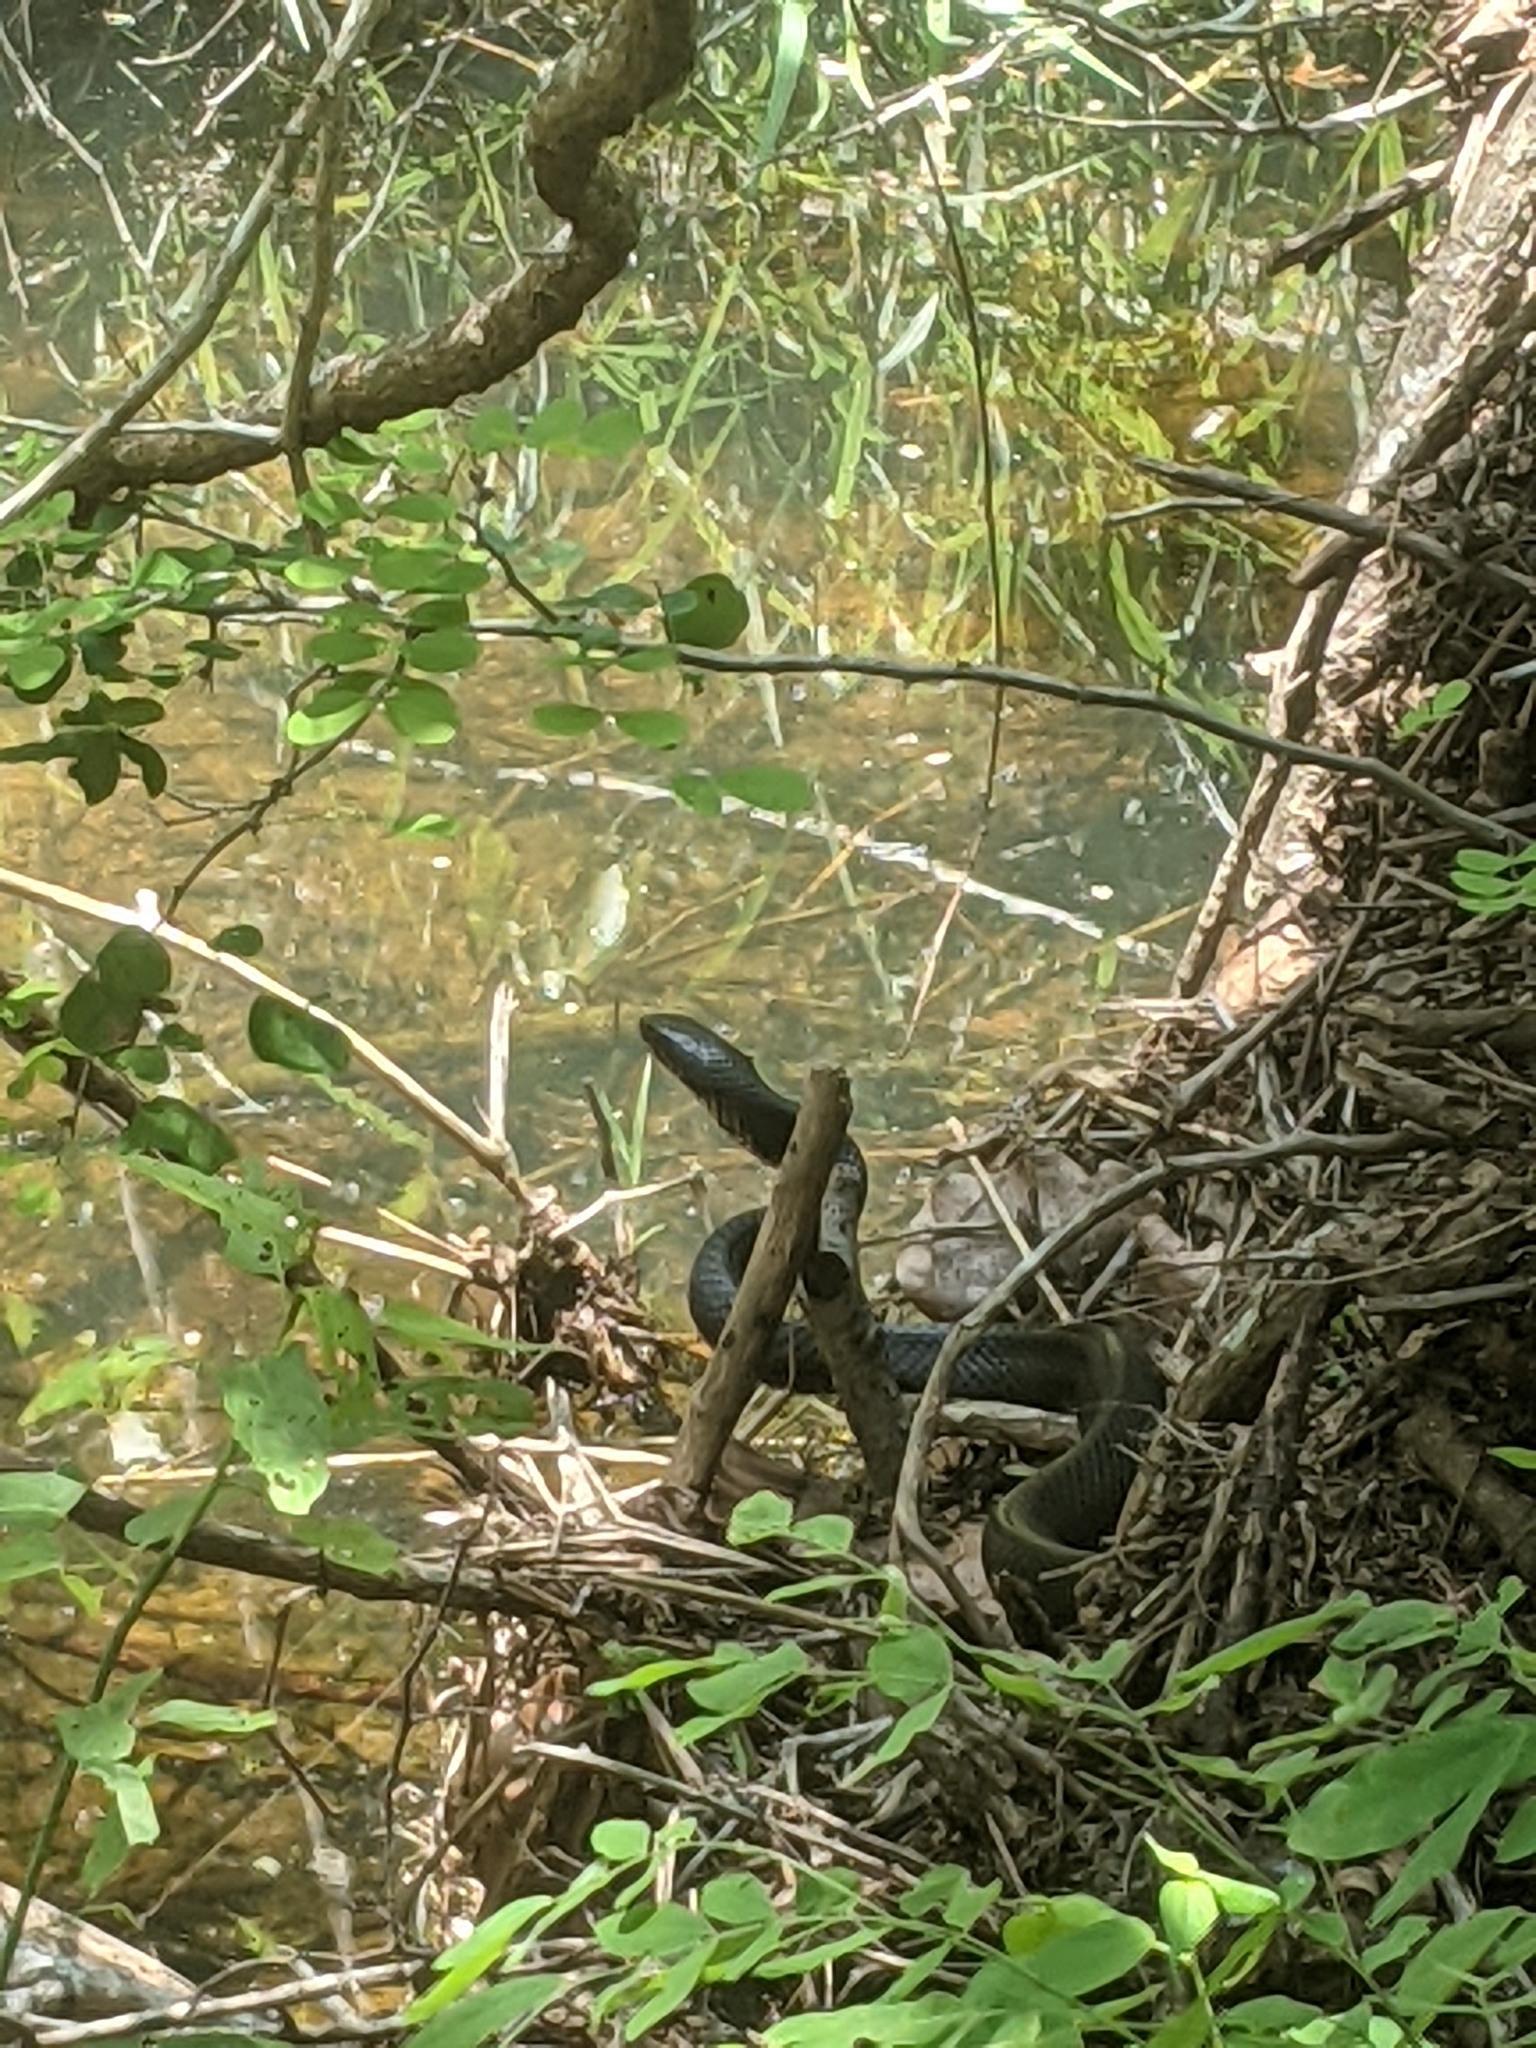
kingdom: Animalia
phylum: Chordata
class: Squamata
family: Colubridae
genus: Drymarchon
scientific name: Drymarchon melanurus
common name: Central american indigo snake
